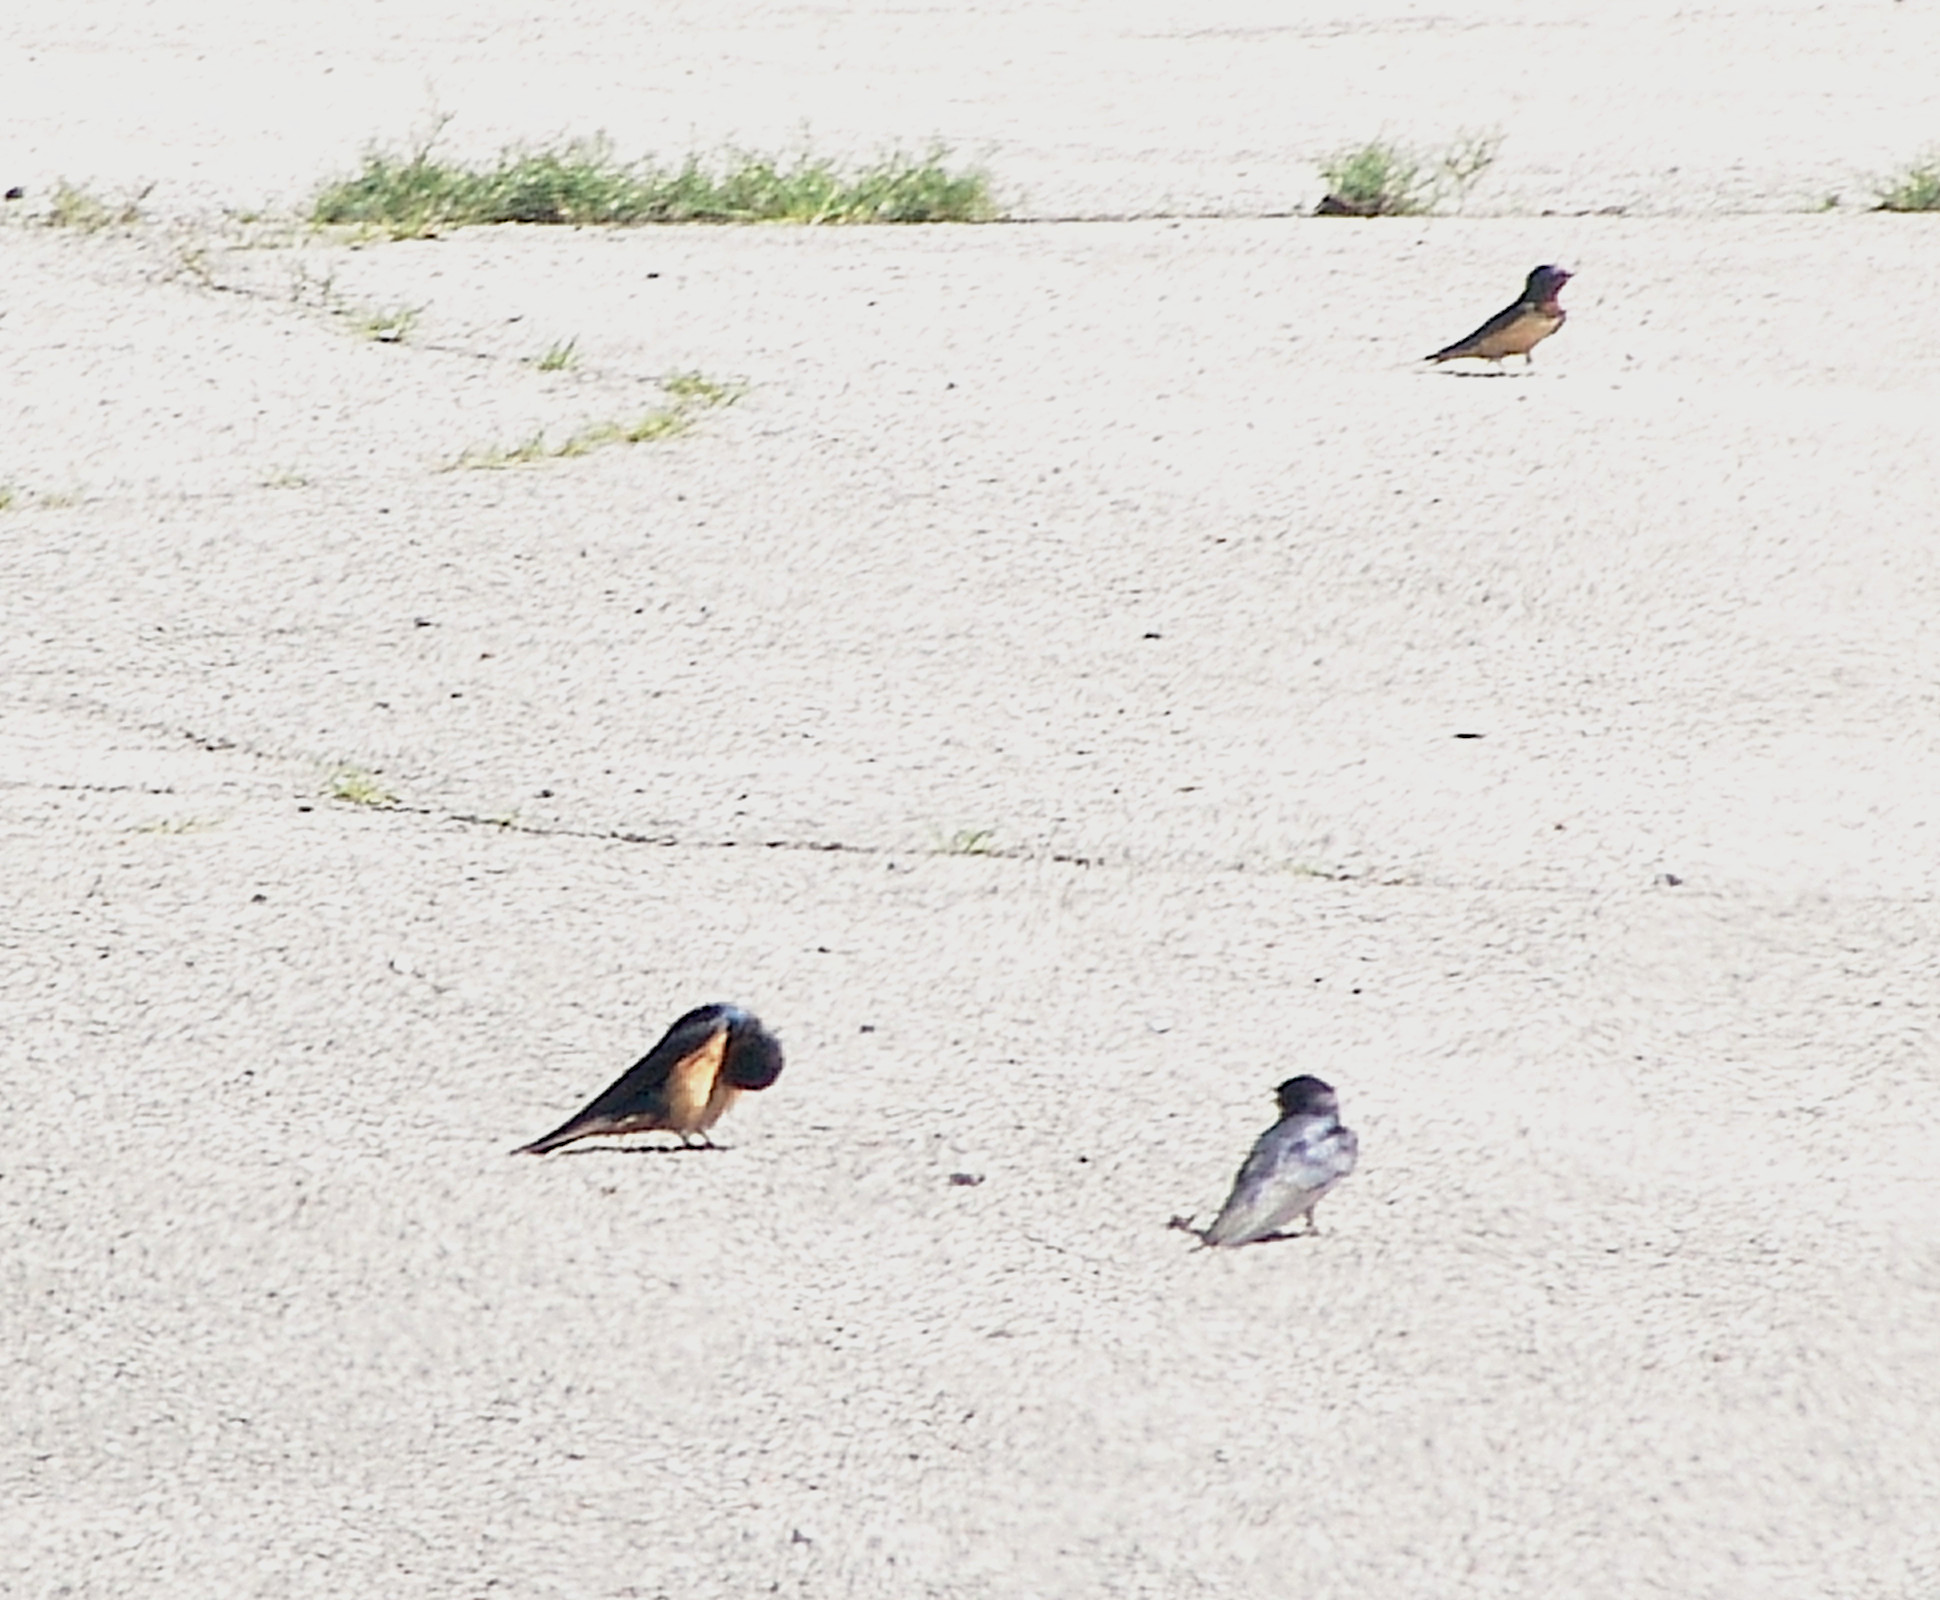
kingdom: Animalia
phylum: Chordata
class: Aves
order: Passeriformes
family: Hirundinidae
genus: Hirundo
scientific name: Hirundo rustica
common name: Barn swallow
